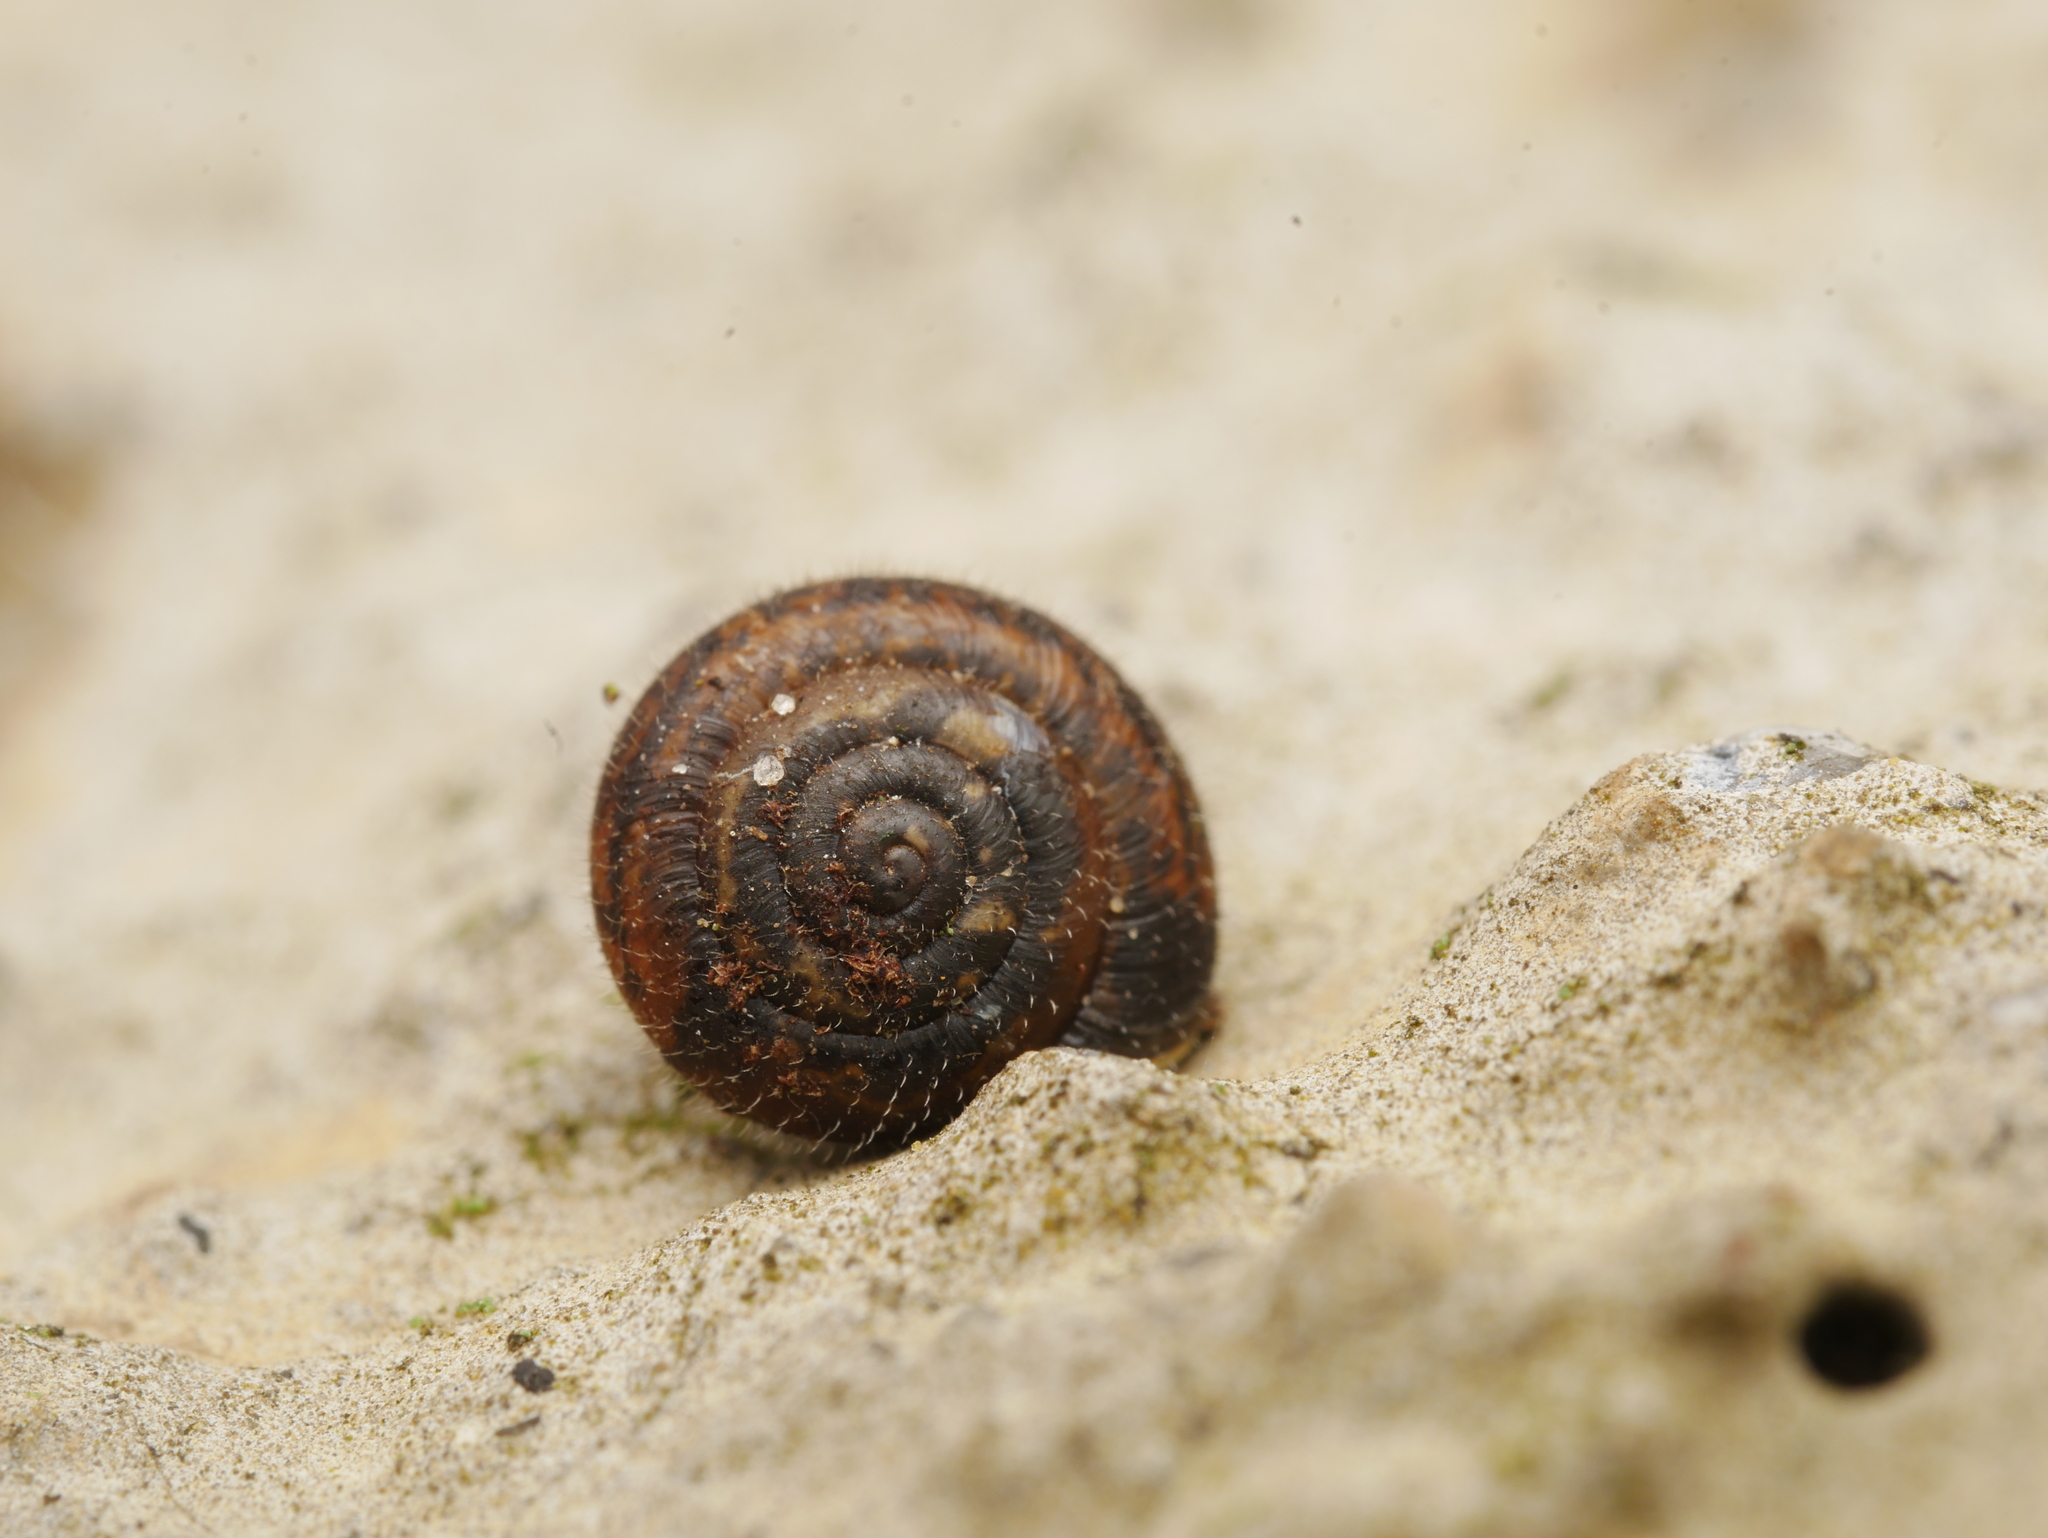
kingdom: Animalia
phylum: Mollusca
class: Gastropoda
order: Stylommatophora
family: Hygromiidae
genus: Trochulus
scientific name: Trochulus hispidus
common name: Hairy snail
